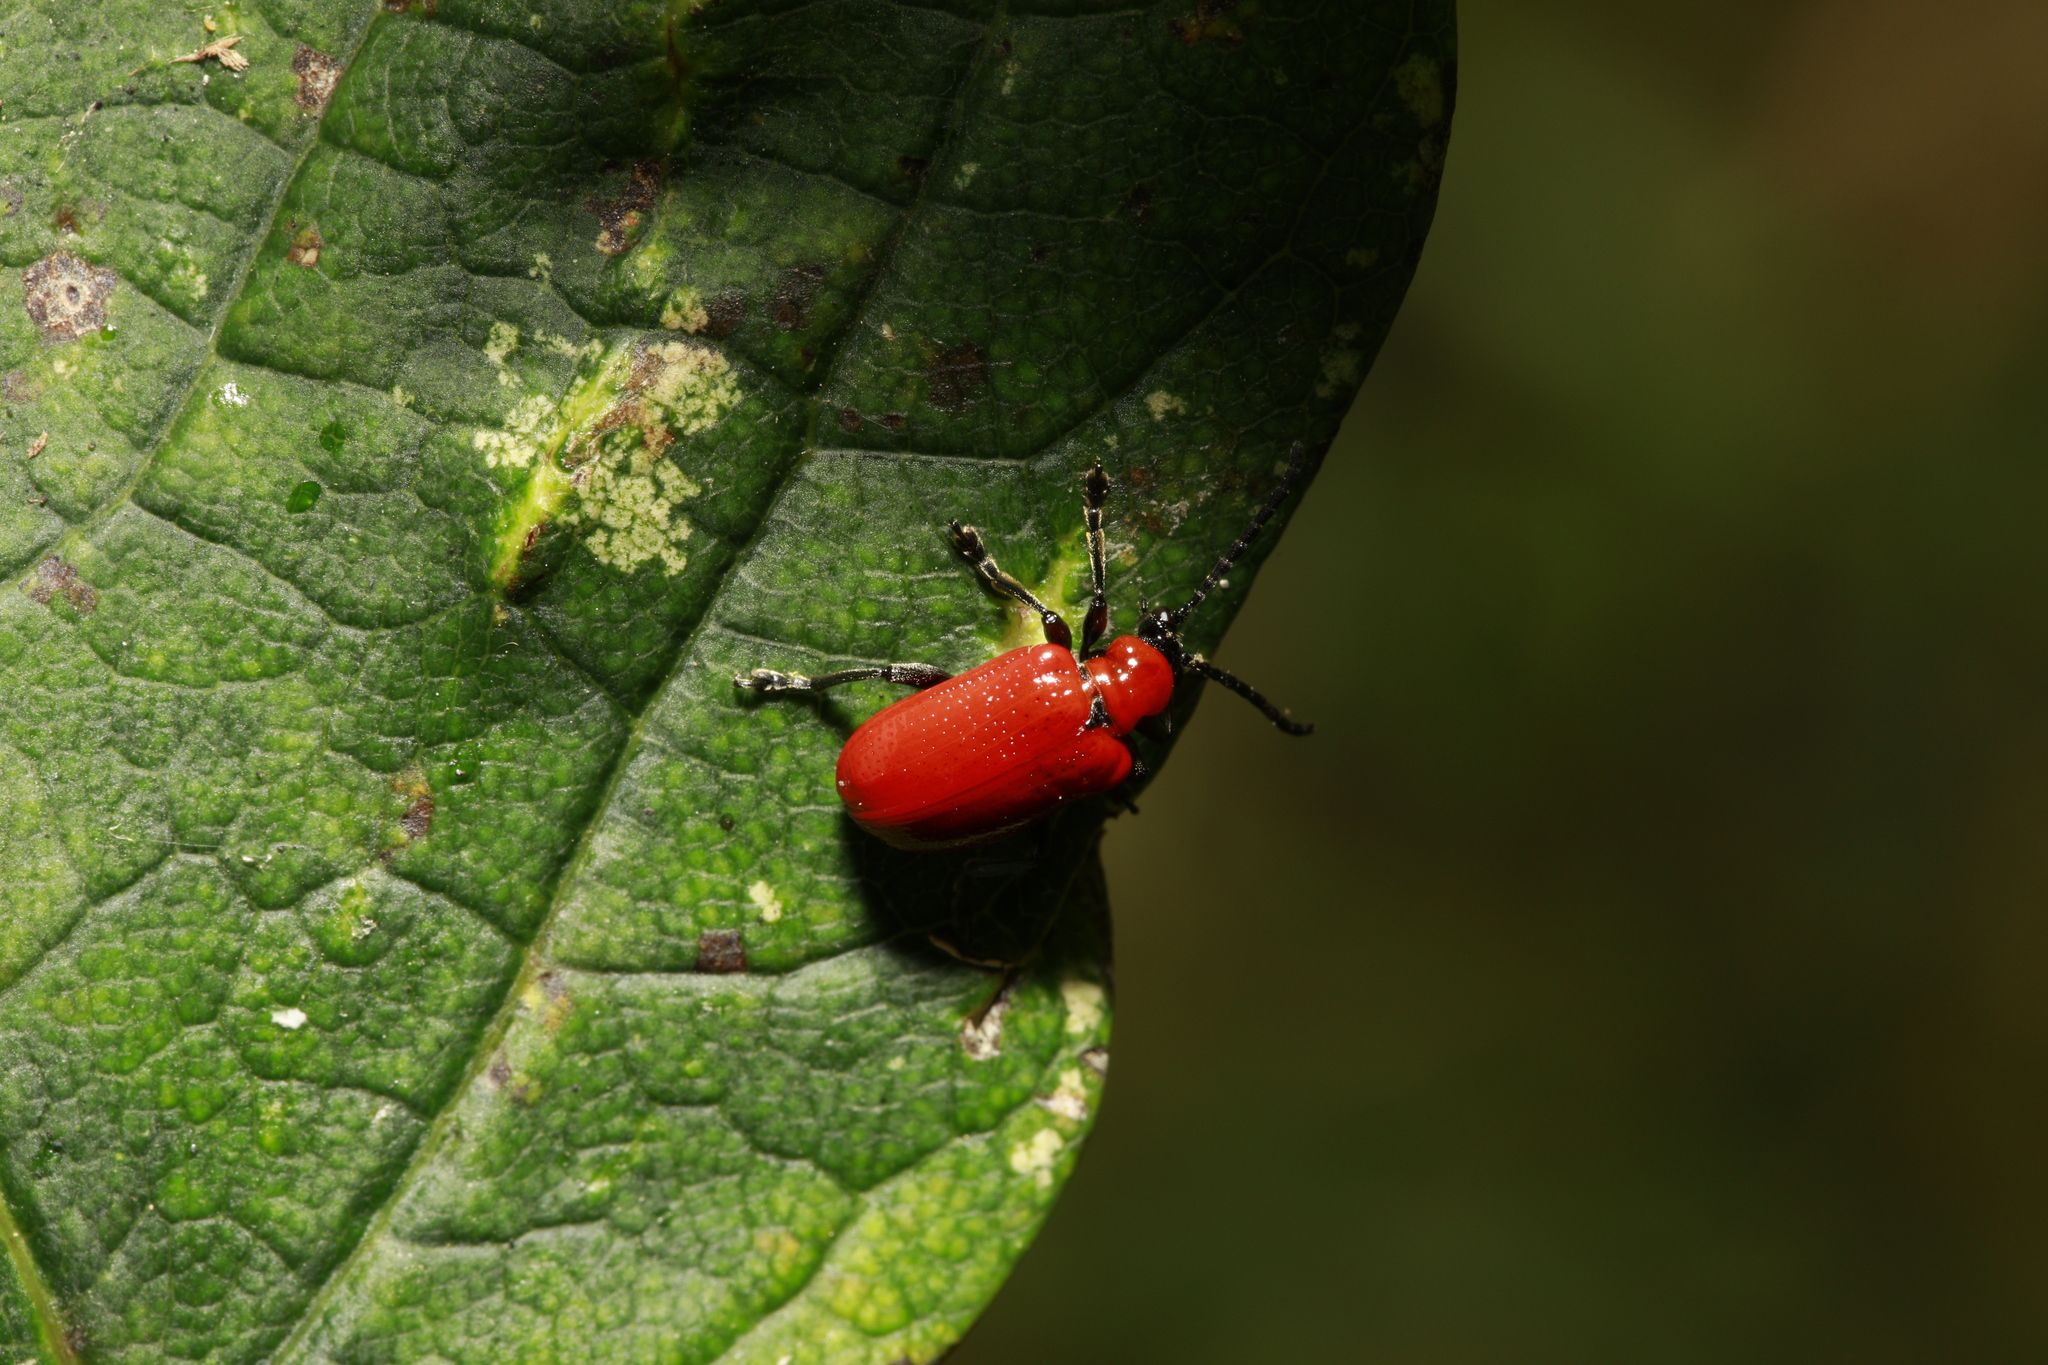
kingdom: Animalia
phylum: Arthropoda
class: Insecta
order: Coleoptera
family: Chrysomelidae
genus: Lilioceris
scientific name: Lilioceris lilii
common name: Lily beetle
